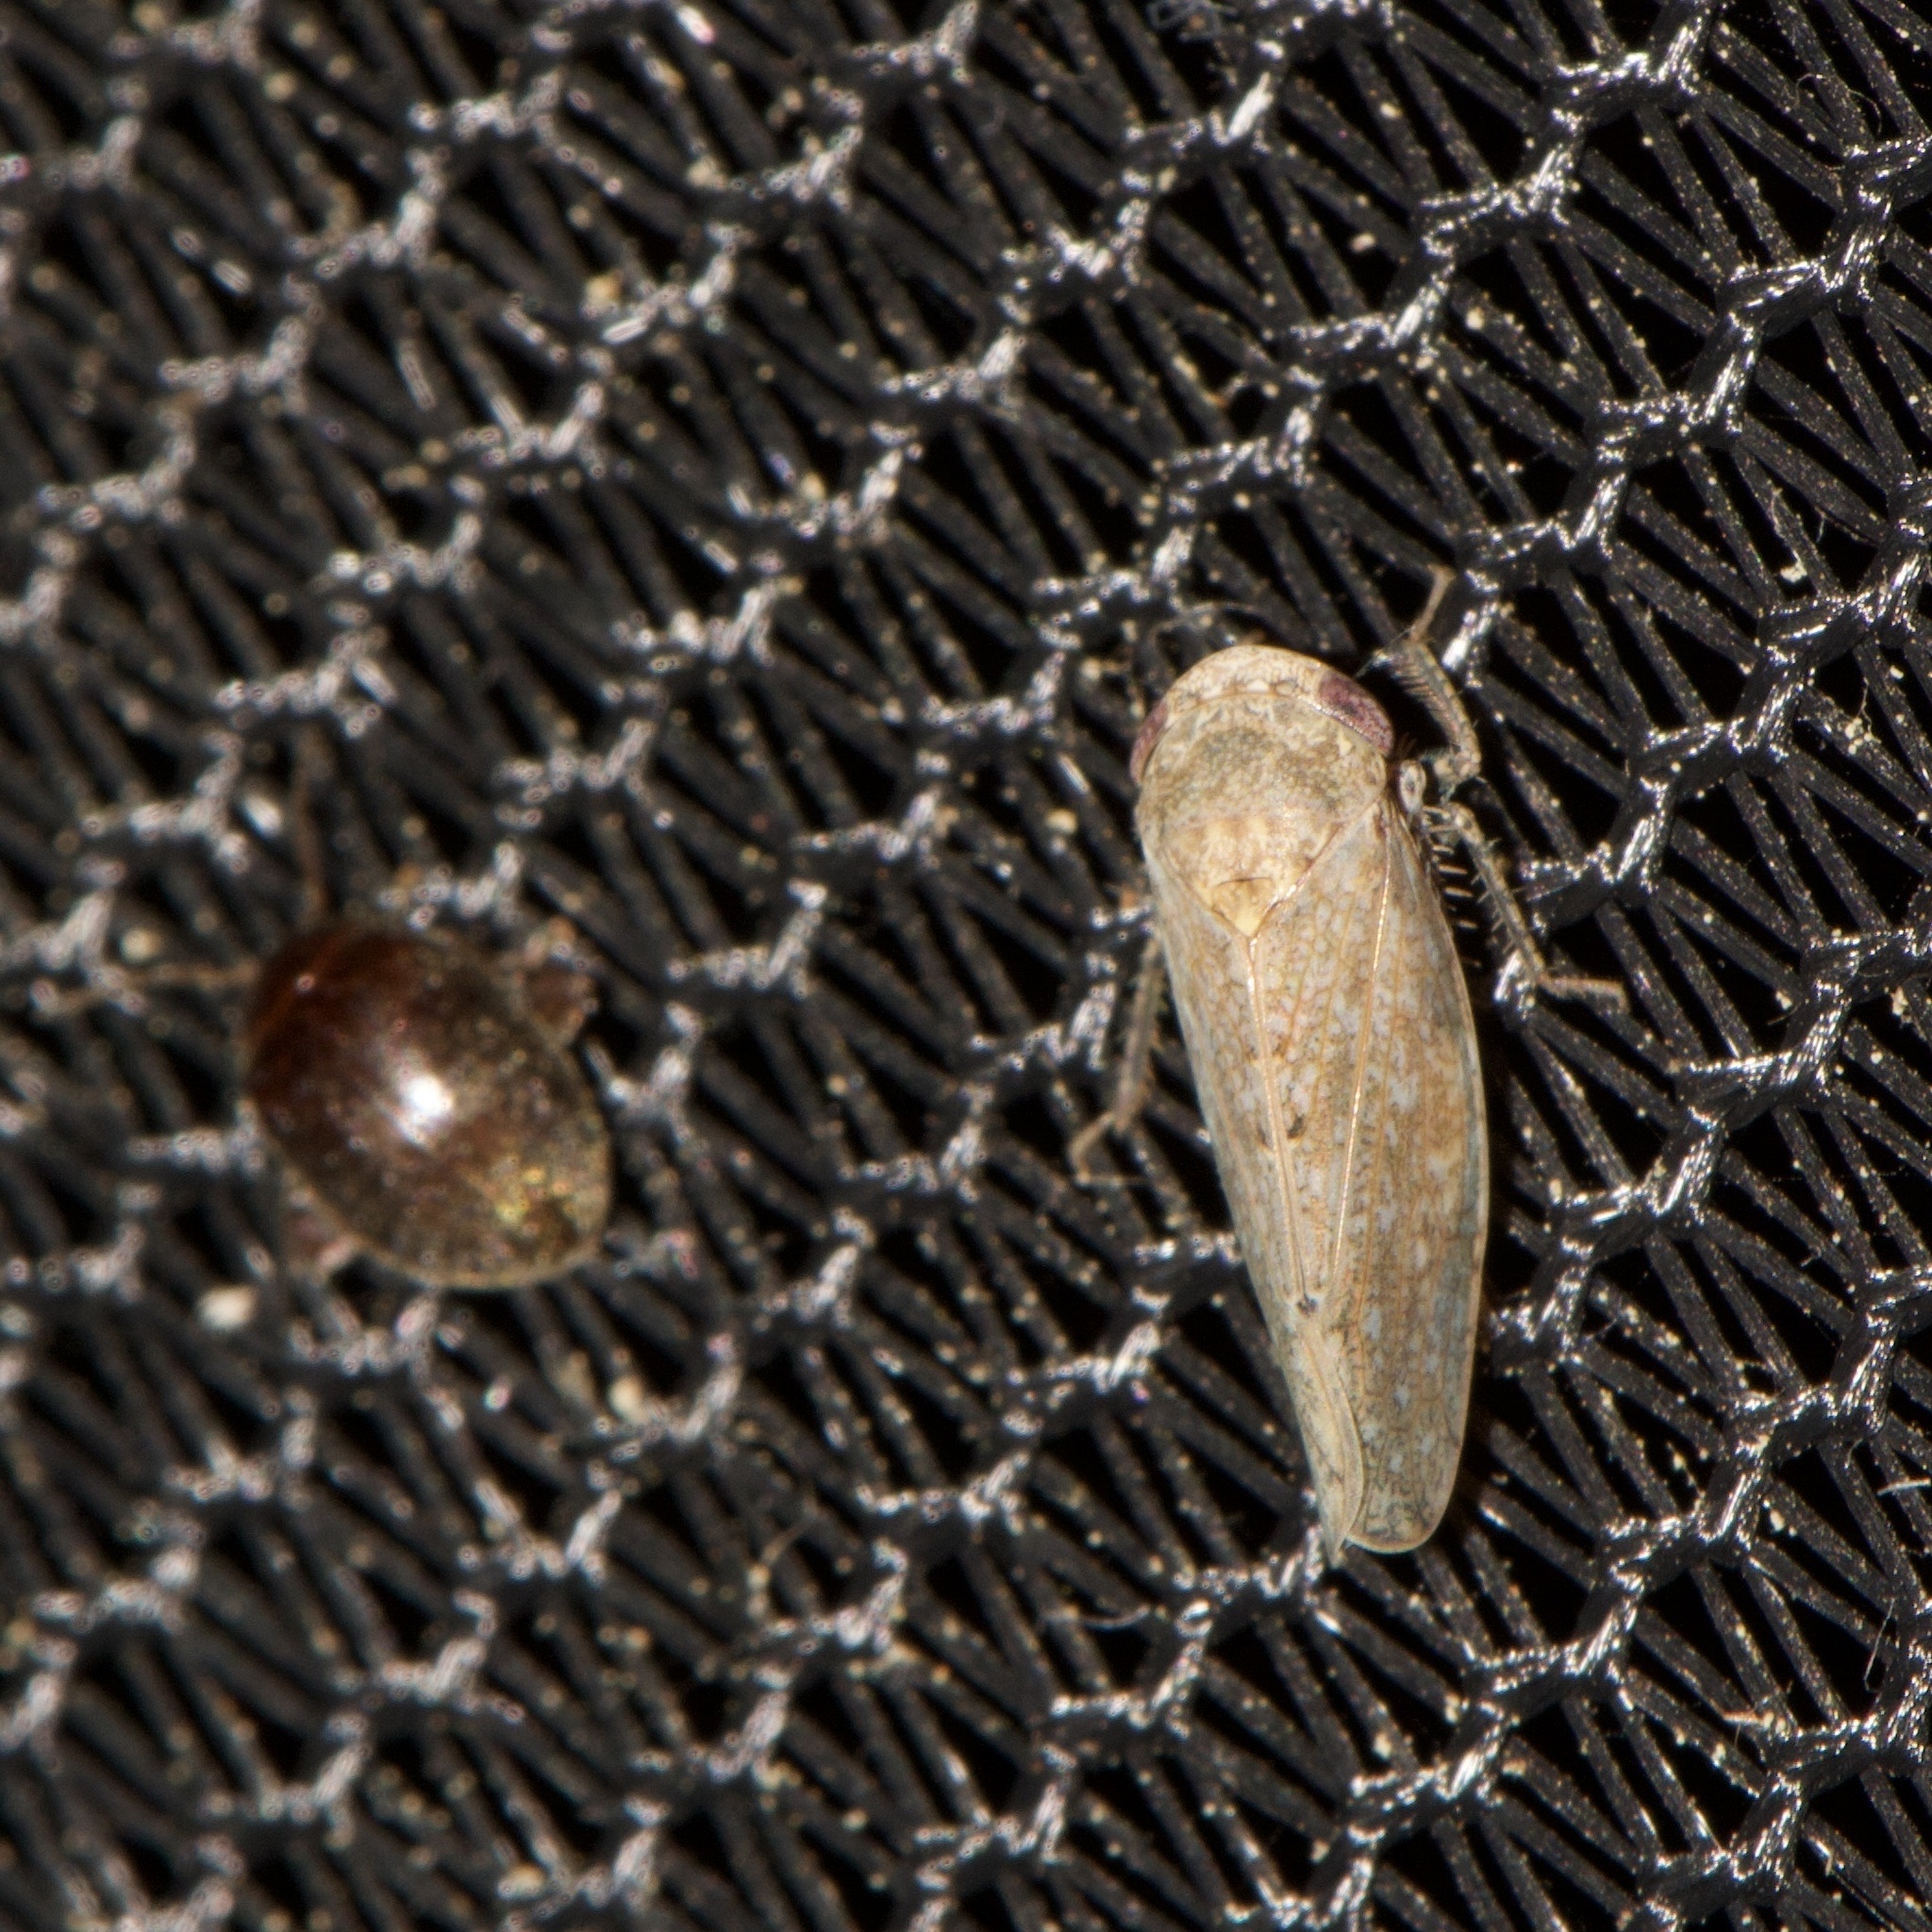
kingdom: Animalia
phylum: Arthropoda
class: Insecta
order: Coleoptera
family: Scirtidae
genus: Scirtes
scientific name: Scirtes tibialis
